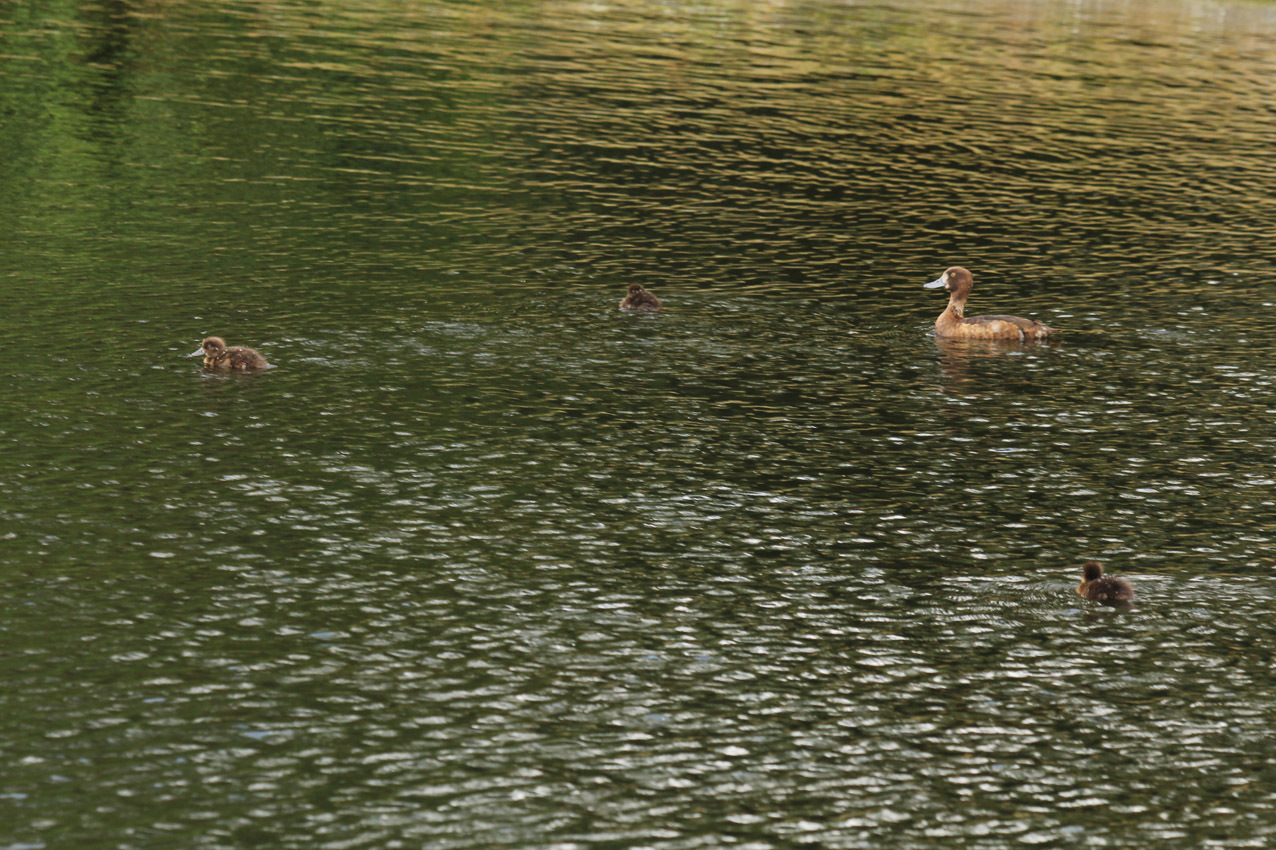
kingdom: Animalia
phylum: Chordata
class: Aves
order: Anseriformes
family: Anatidae
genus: Aythya
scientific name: Aythya fuligula
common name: Tufted duck
